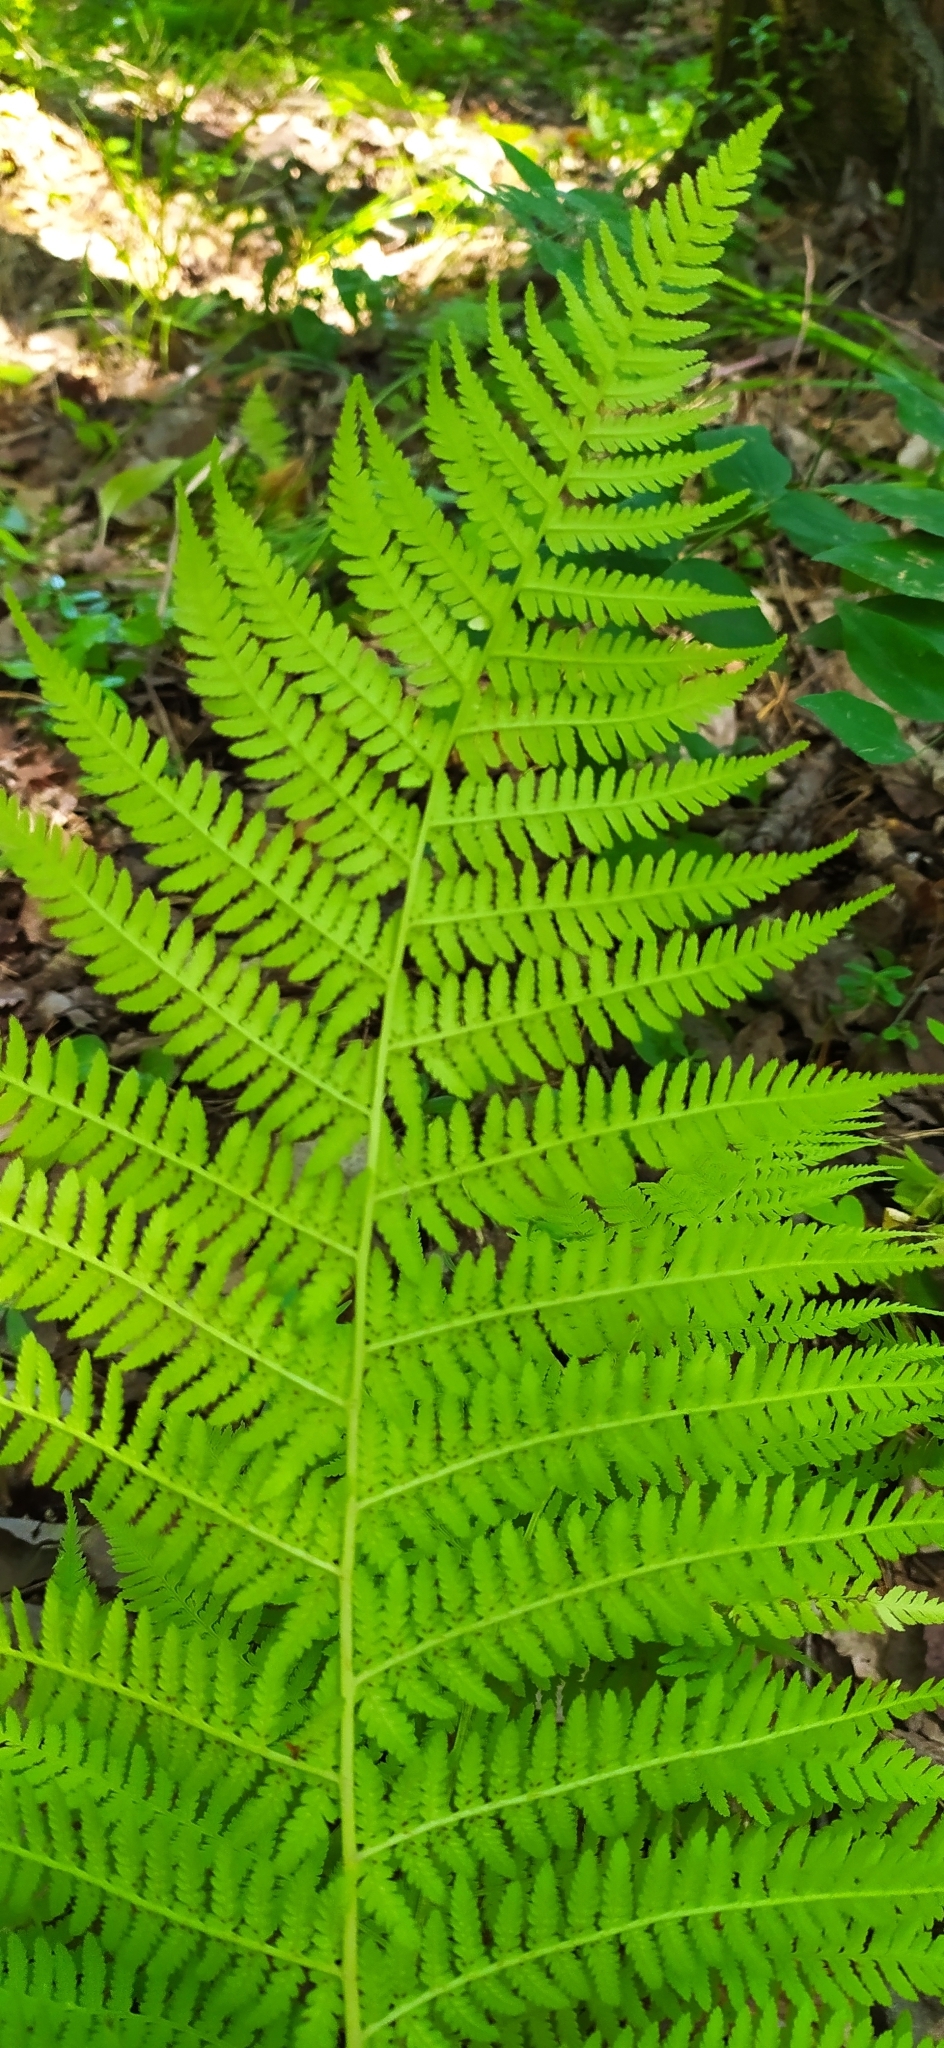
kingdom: Plantae
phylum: Tracheophyta
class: Polypodiopsida
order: Polypodiales
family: Athyriaceae
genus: Athyrium
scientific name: Athyrium filix-femina
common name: Lady fern
